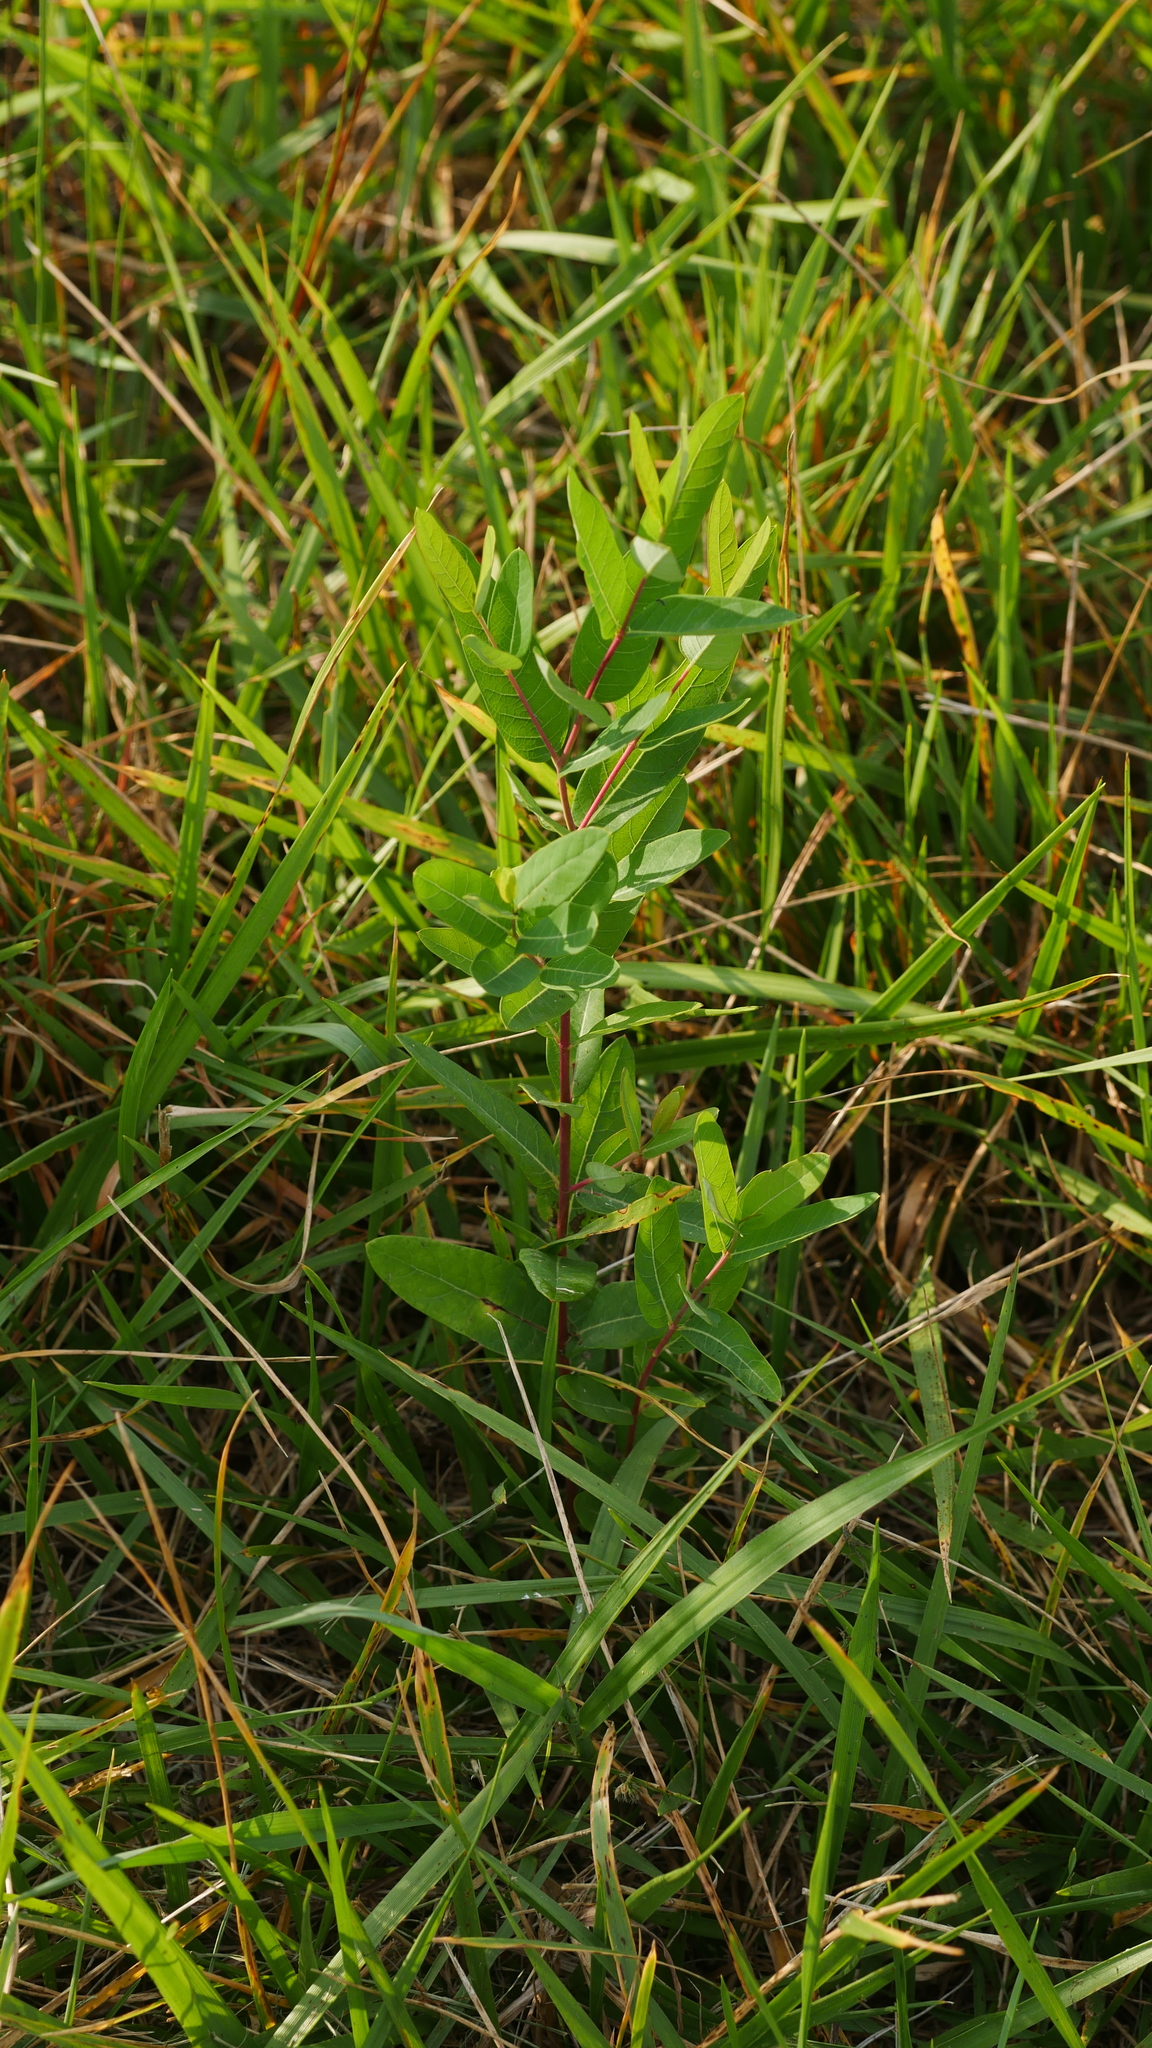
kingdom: Plantae
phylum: Tracheophyta
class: Magnoliopsida
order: Gentianales
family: Apocynaceae
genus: Apocynum
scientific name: Apocynum cannabinum
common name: Hemp dogbane
